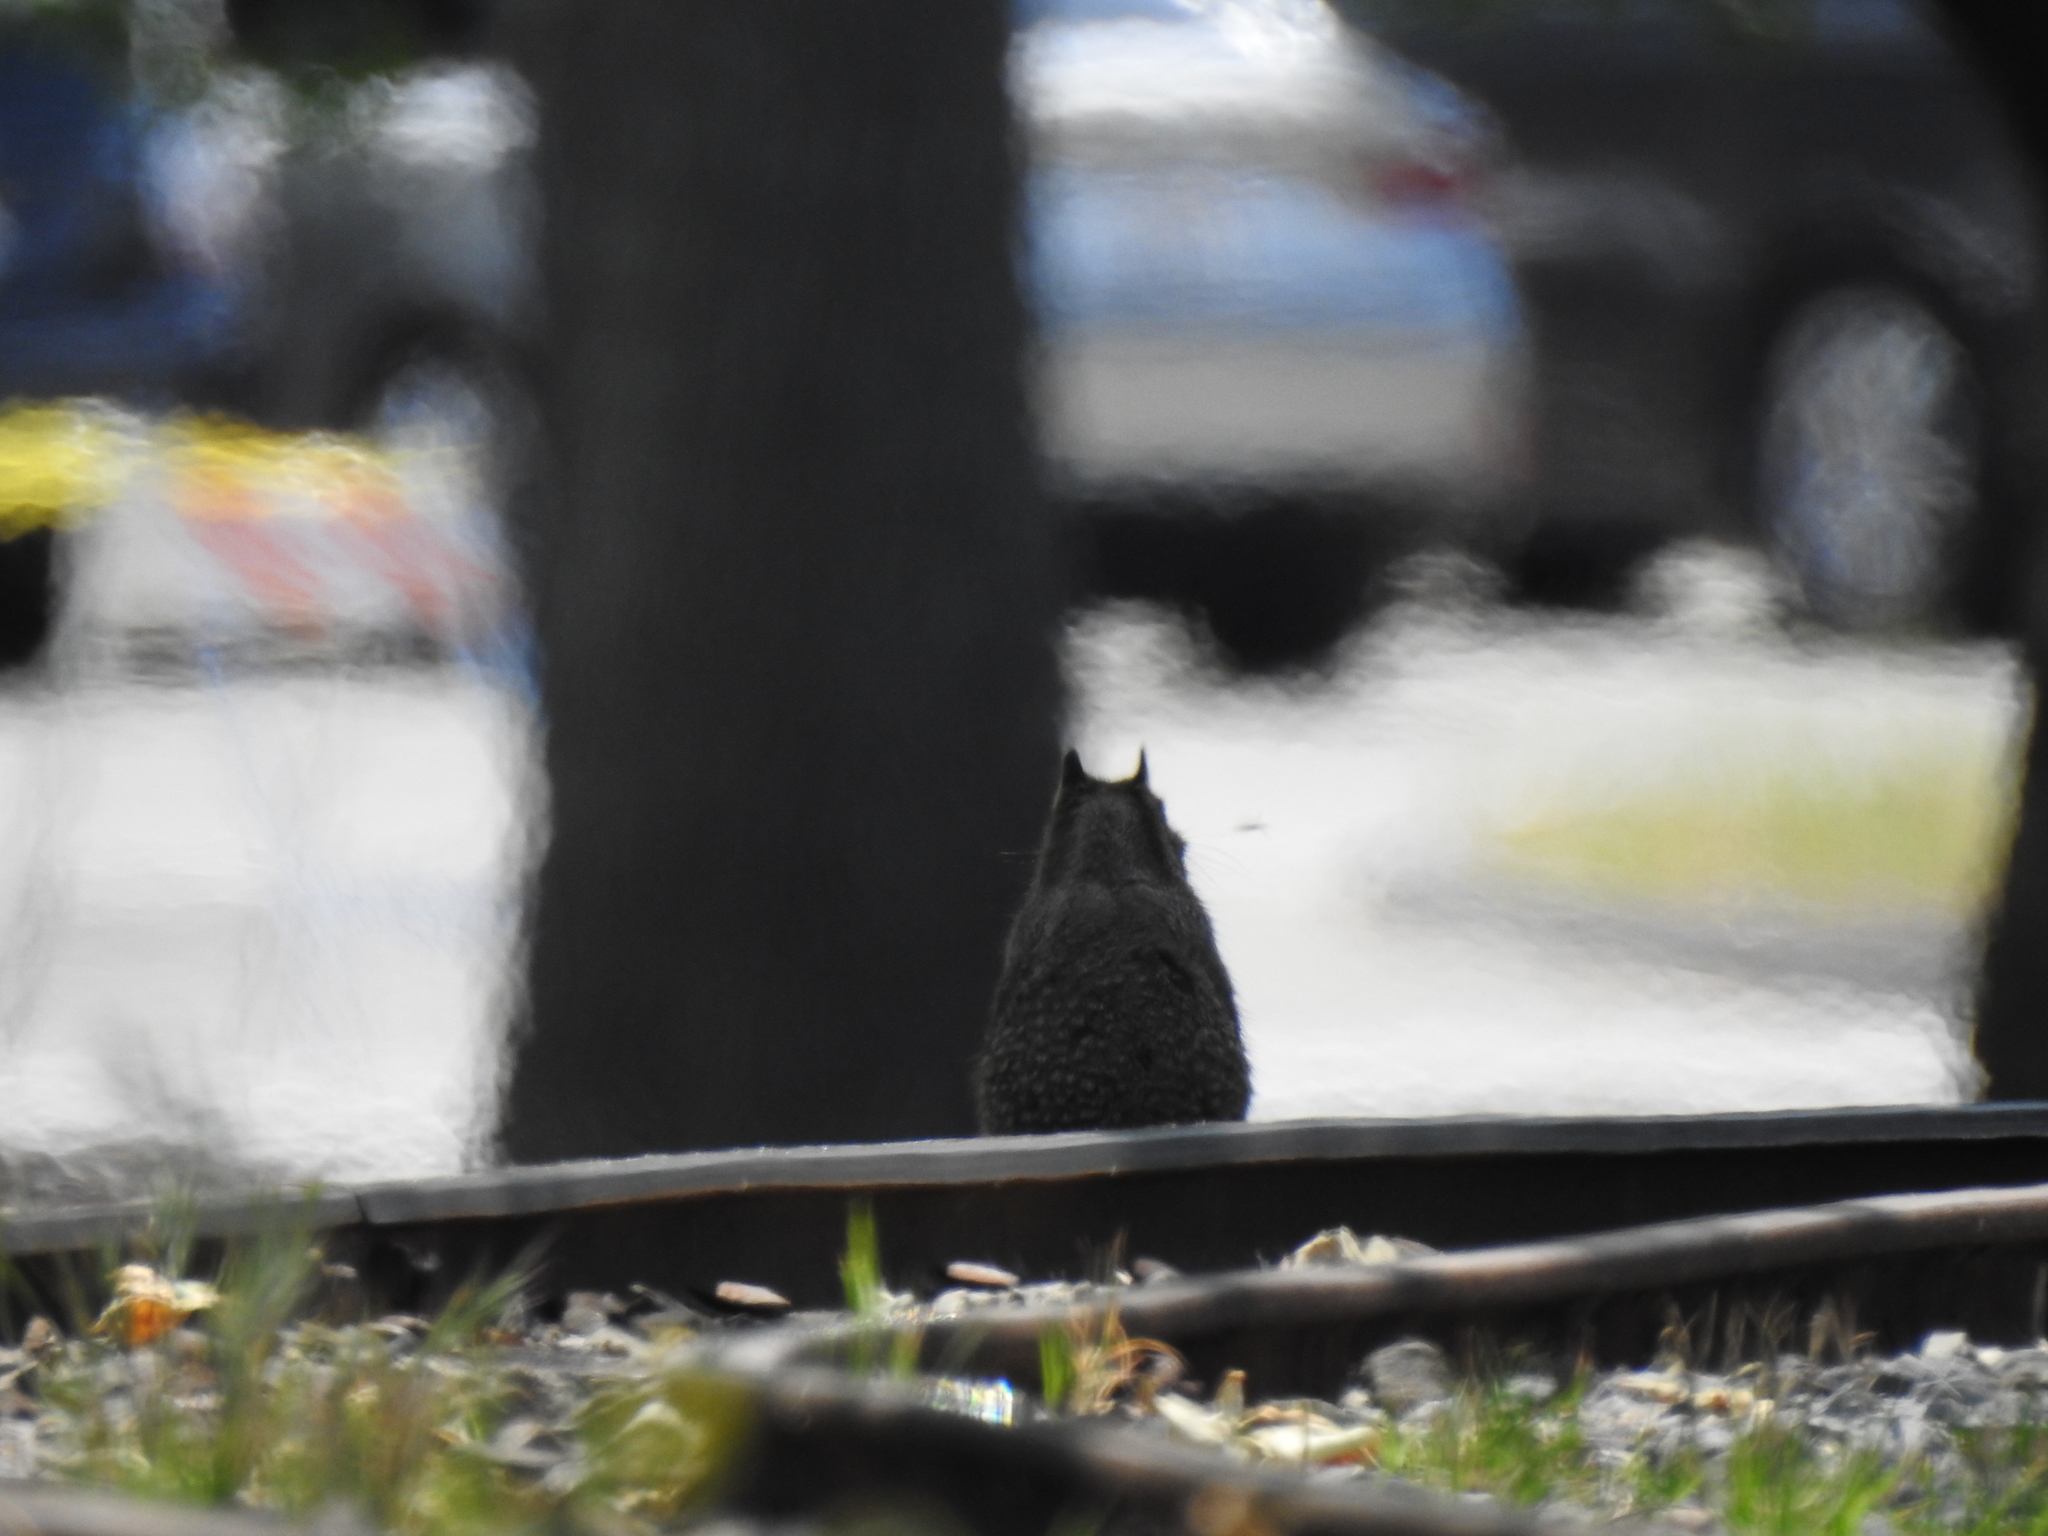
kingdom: Animalia
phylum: Chordata
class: Mammalia
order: Rodentia
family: Sciuridae
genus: Otospermophilus
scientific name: Otospermophilus beecheyi
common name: California ground squirrel
